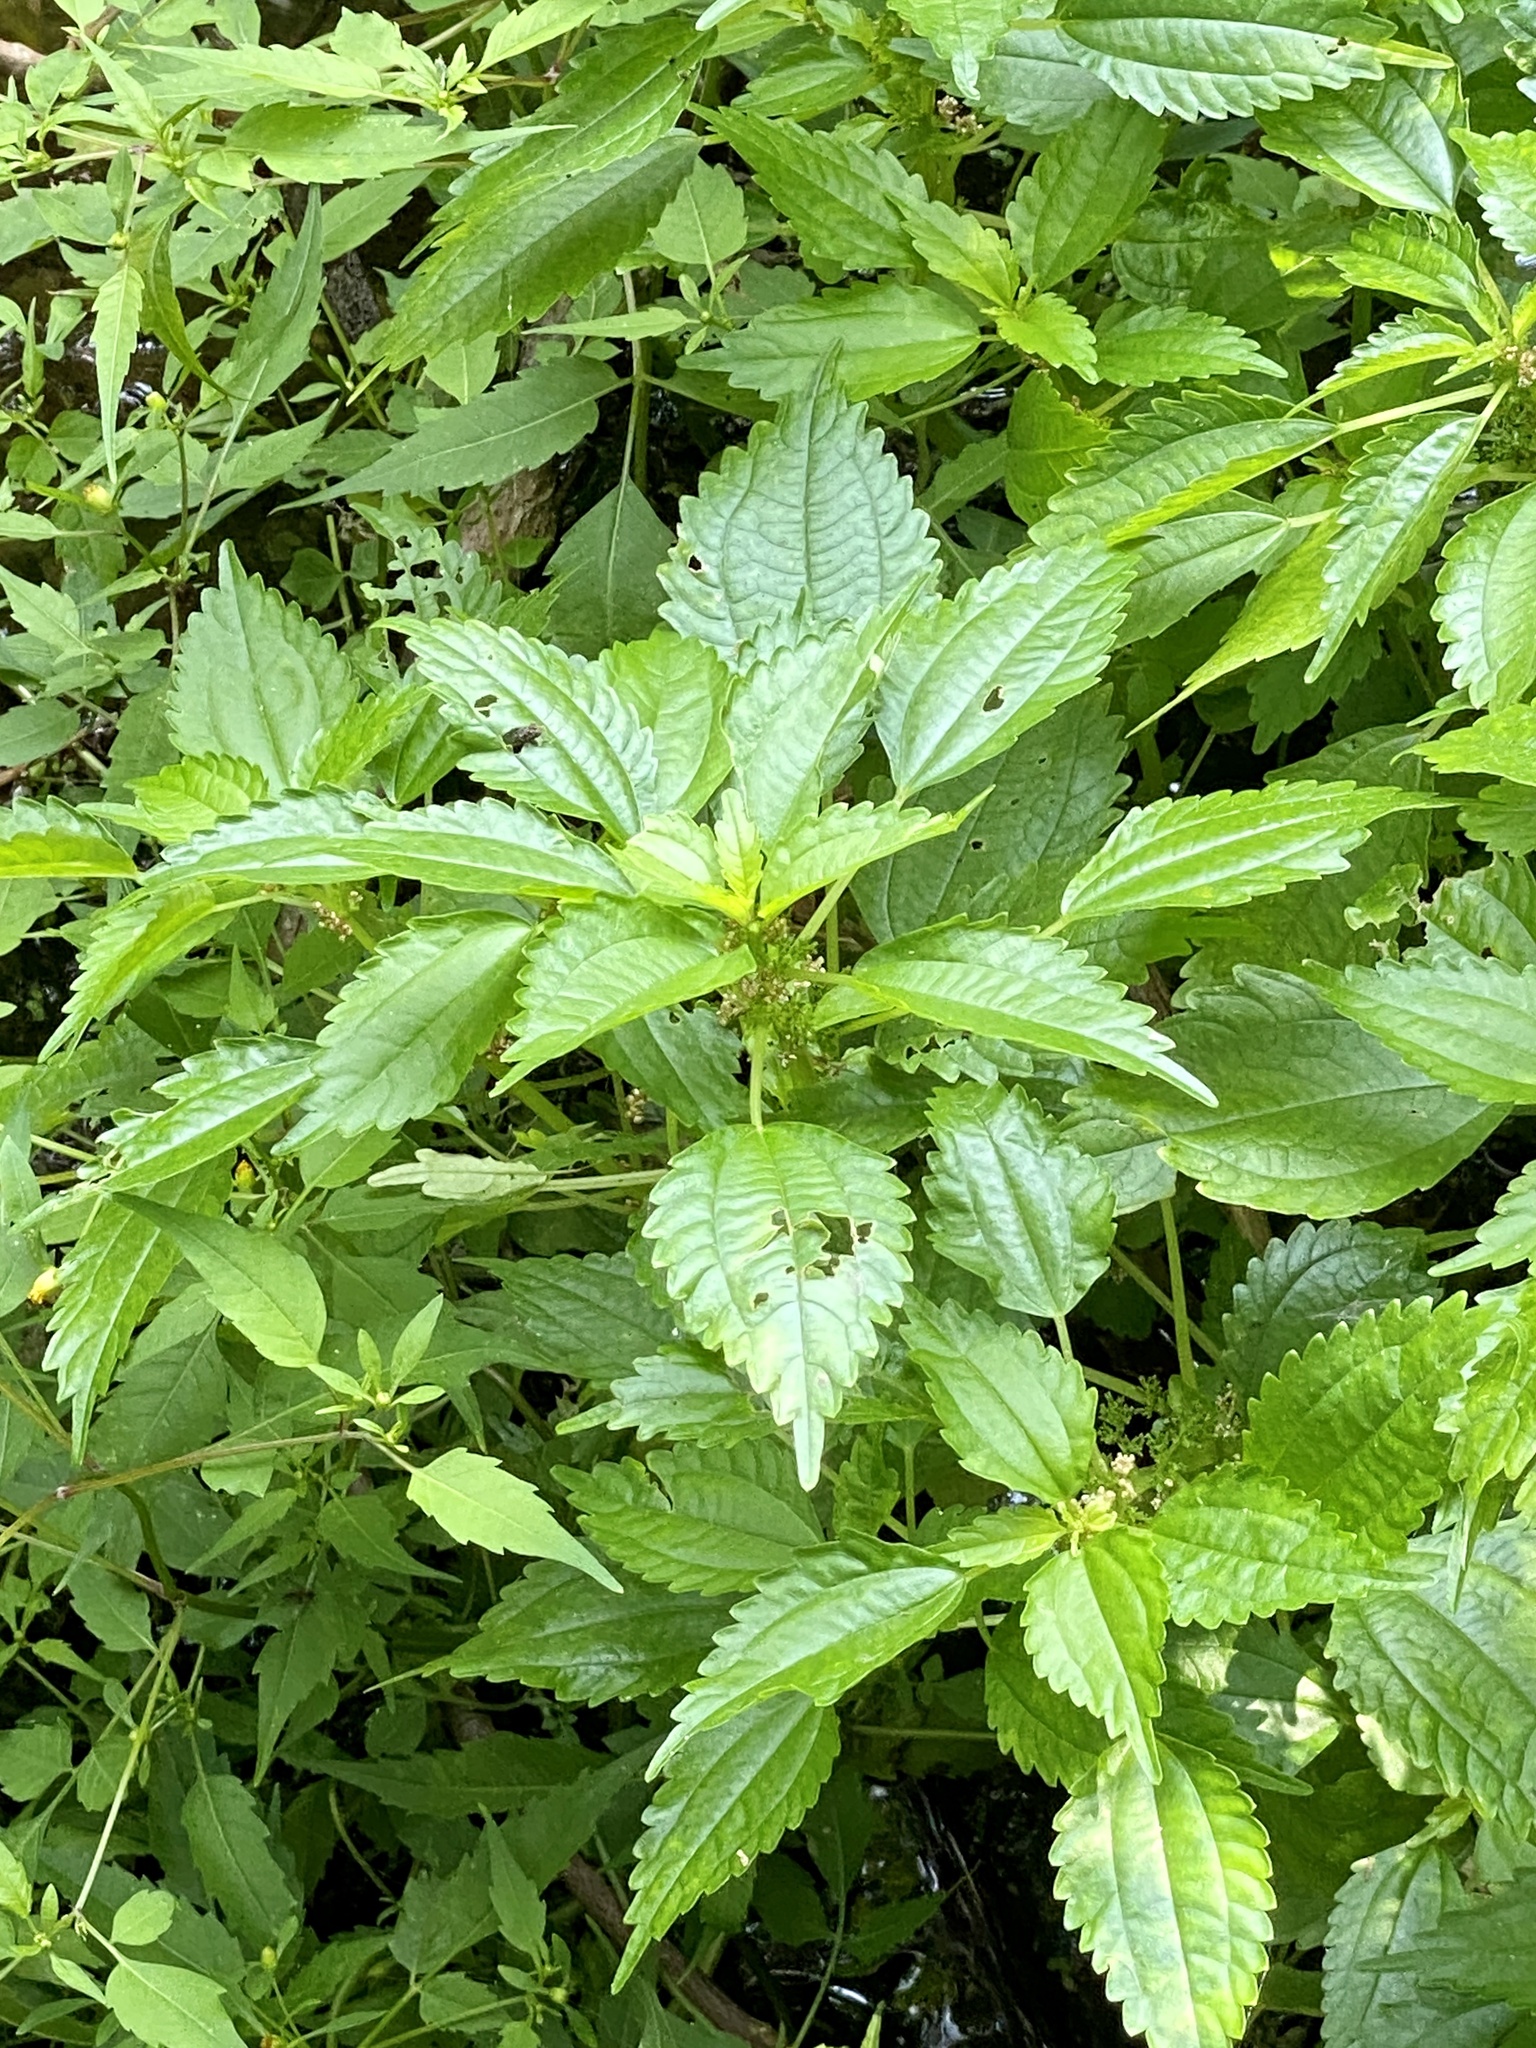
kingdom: Plantae
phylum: Tracheophyta
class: Magnoliopsida
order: Rosales
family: Urticaceae
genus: Pilea
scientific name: Pilea pumila
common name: Clearweed
